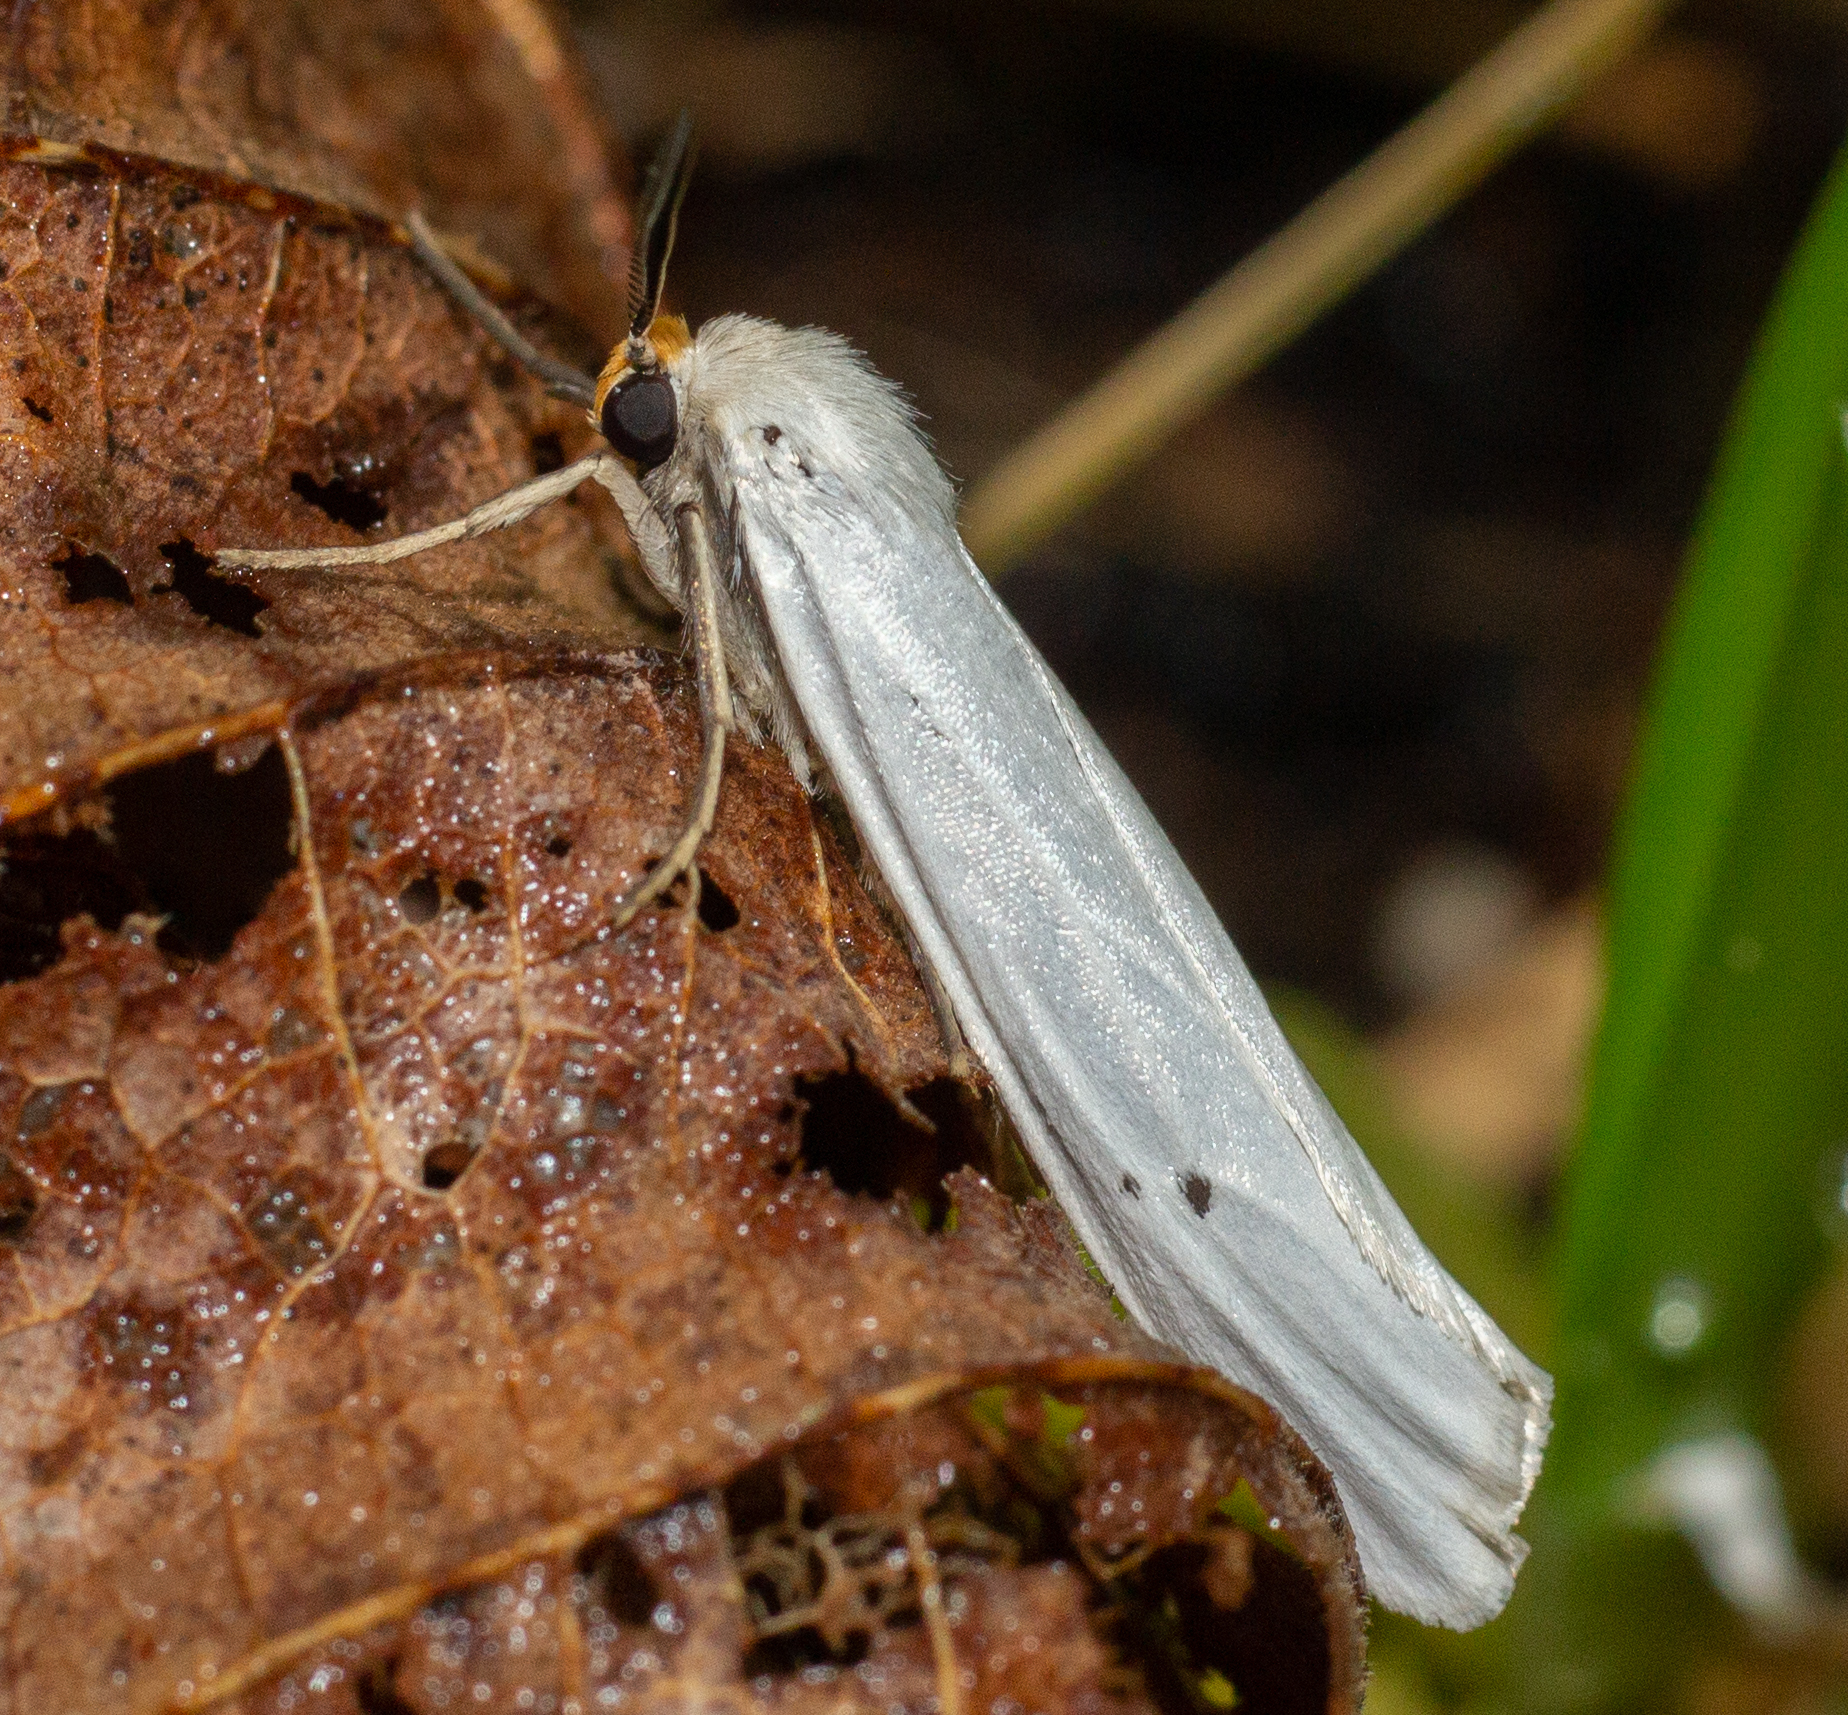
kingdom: Animalia
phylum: Arthropoda
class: Insecta
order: Lepidoptera
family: Erebidae
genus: Coscinia
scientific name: Coscinia cribraria
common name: Speckled footman
